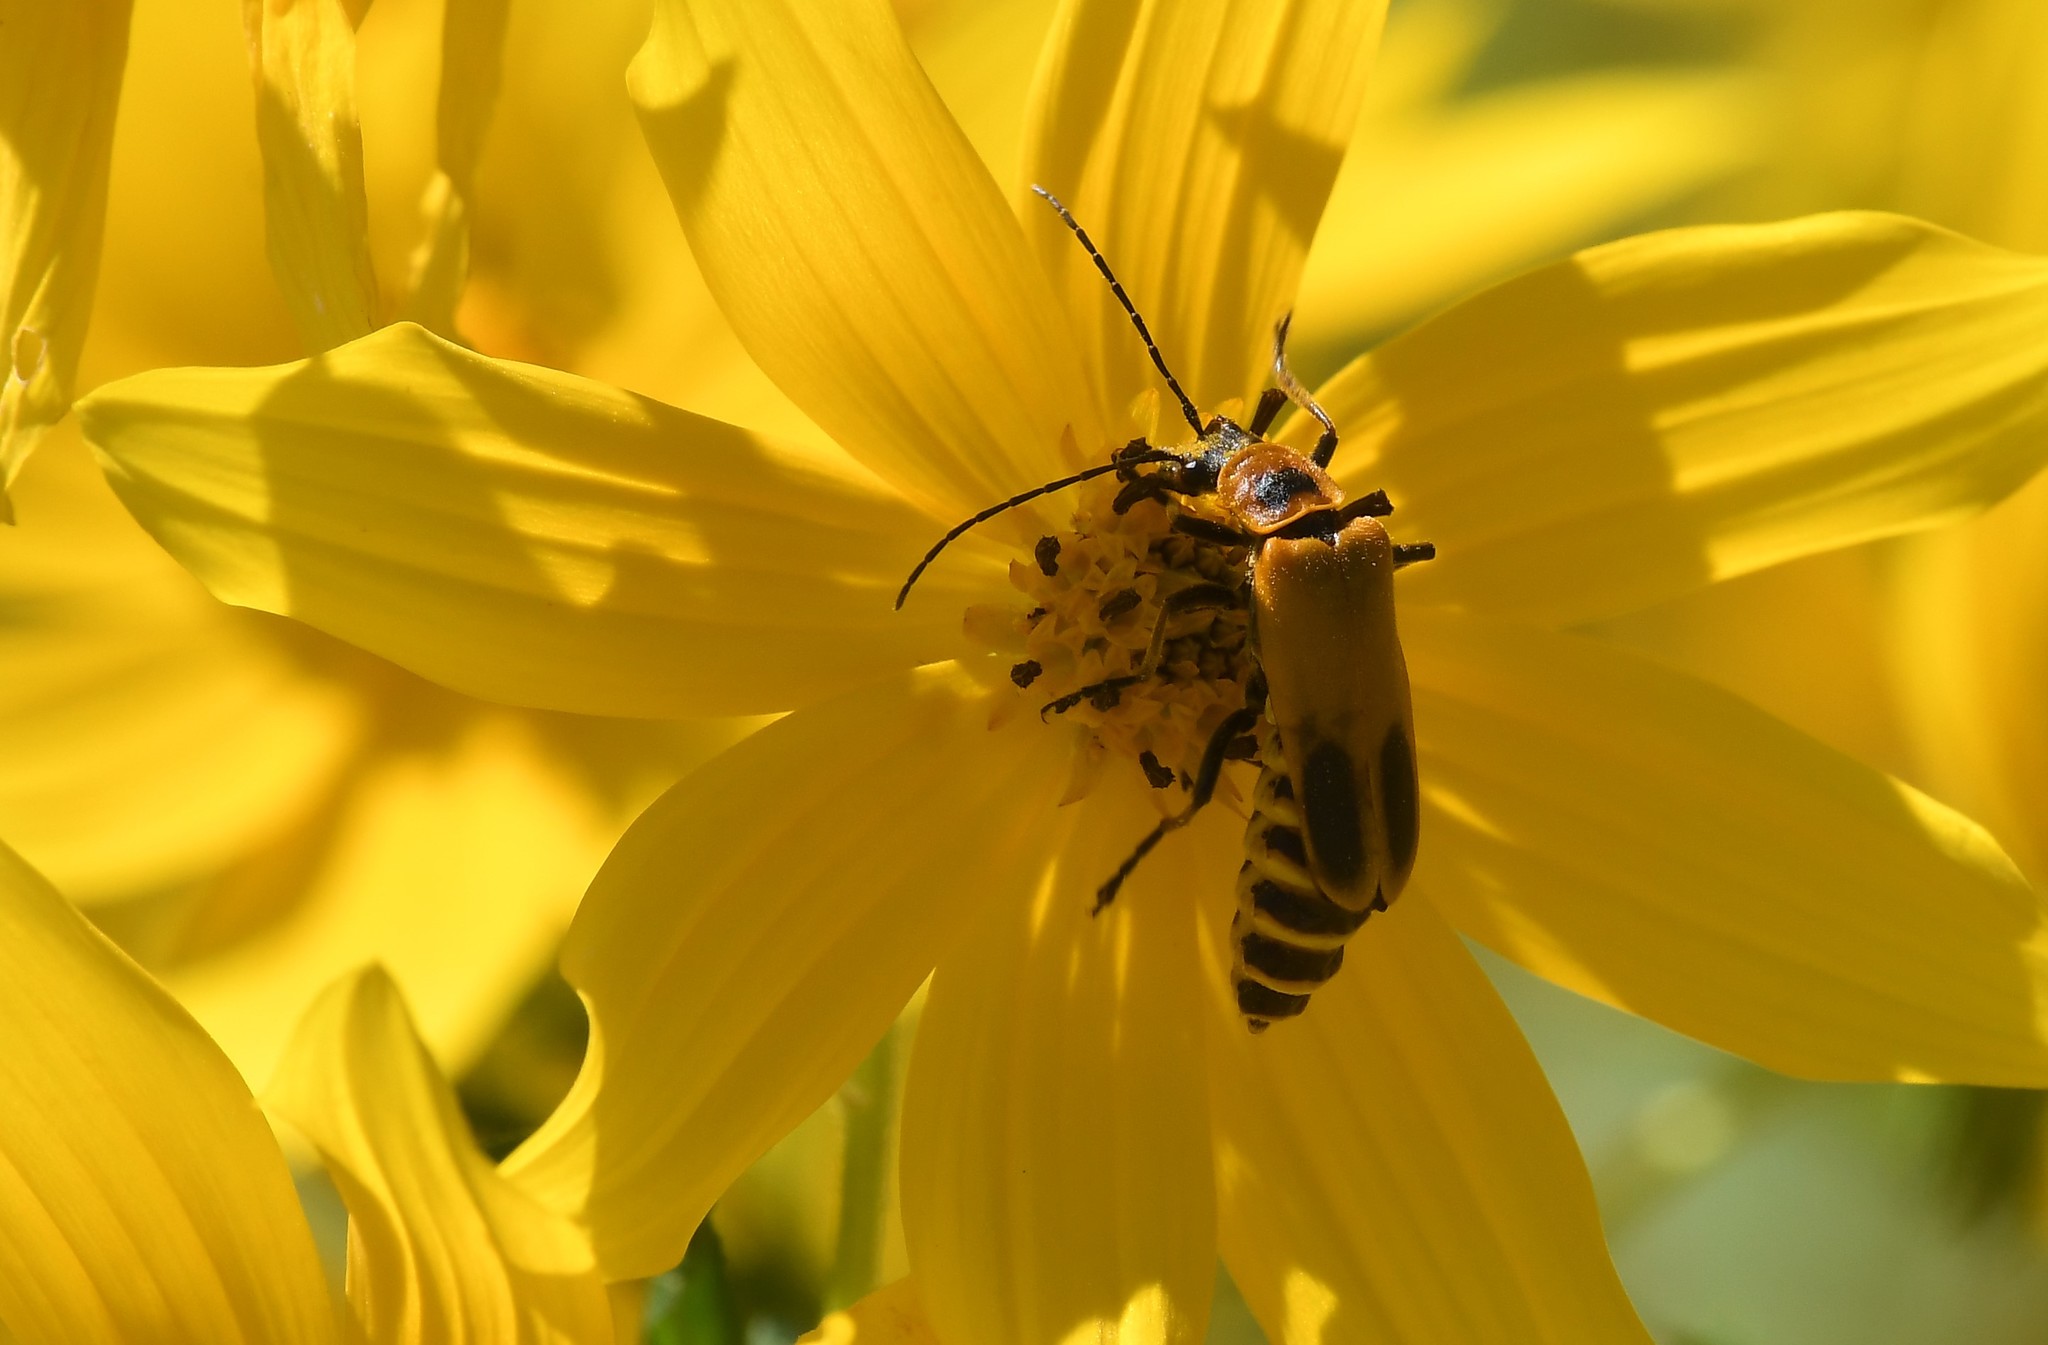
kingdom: Animalia
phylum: Arthropoda
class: Insecta
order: Coleoptera
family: Cantharidae
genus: Chauliognathus
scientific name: Chauliognathus pensylvanicus
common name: Goldenrod soldier beetle
